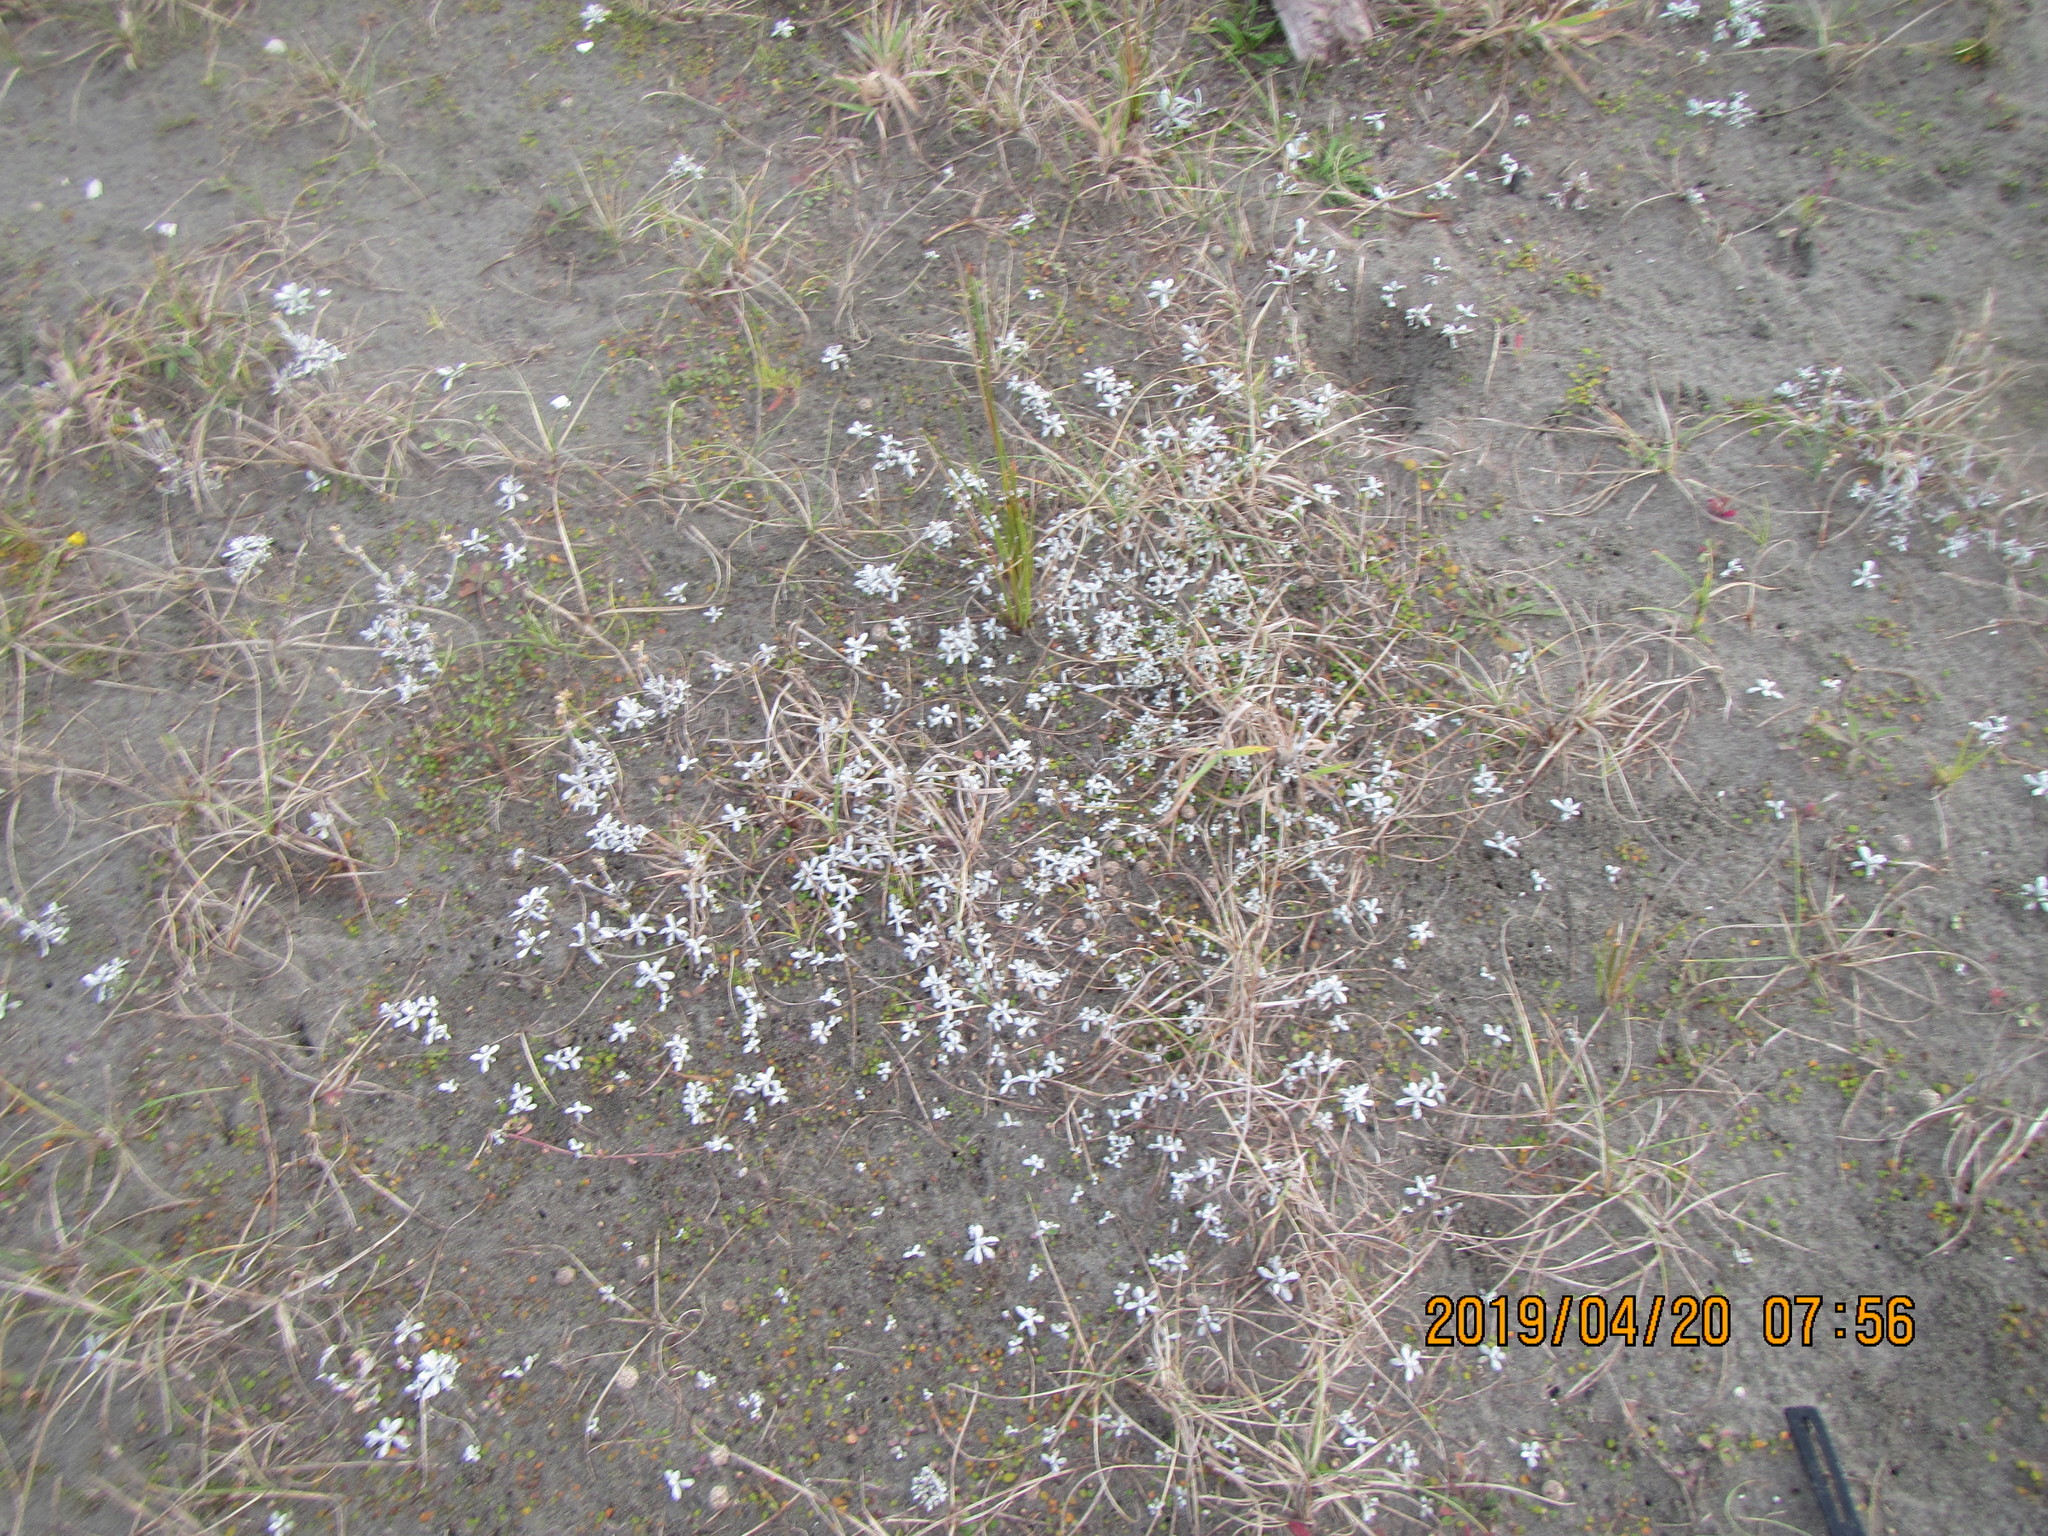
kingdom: Plantae
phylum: Tracheophyta
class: Magnoliopsida
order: Asterales
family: Asteraceae
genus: Helichrysum
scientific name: Helichrysum luteoalbum
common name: Daisy
